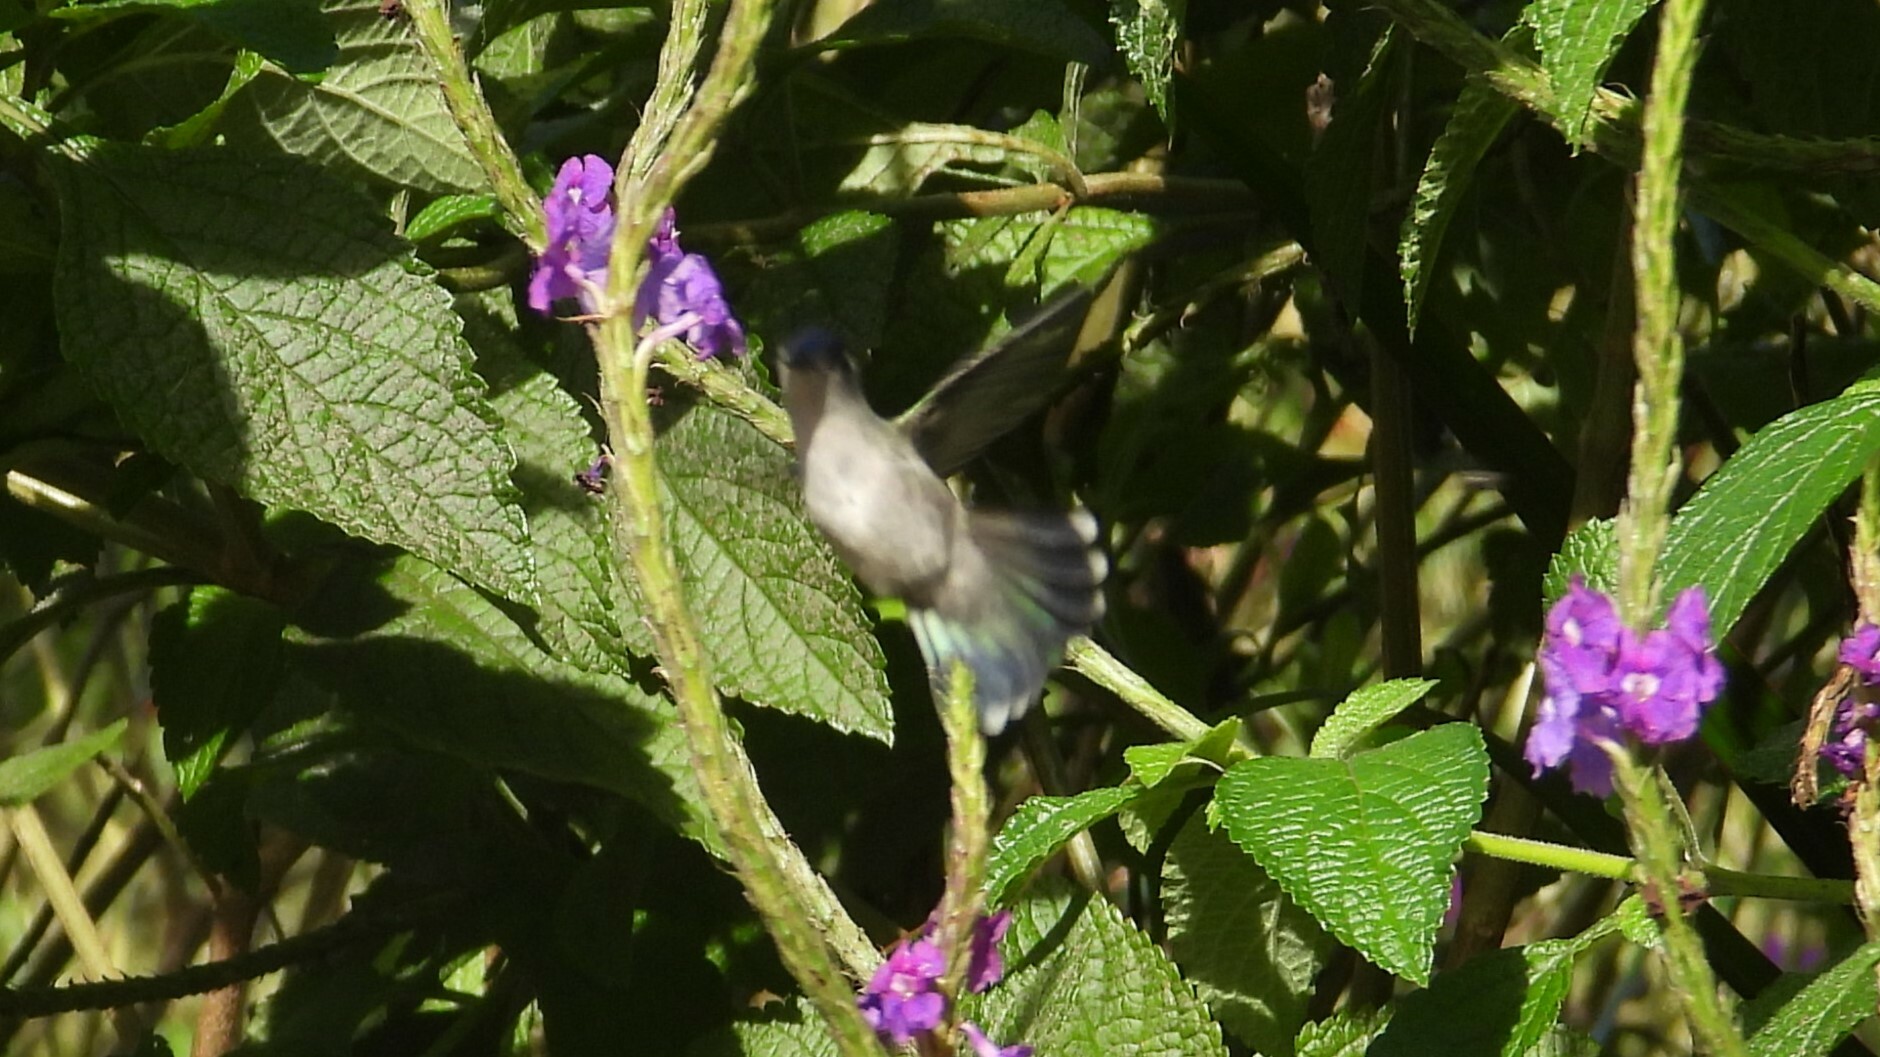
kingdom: Animalia
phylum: Chordata
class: Aves
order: Apodiformes
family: Trochilidae
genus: Klais
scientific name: Klais guimeti
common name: Violet-headed hummingbird
